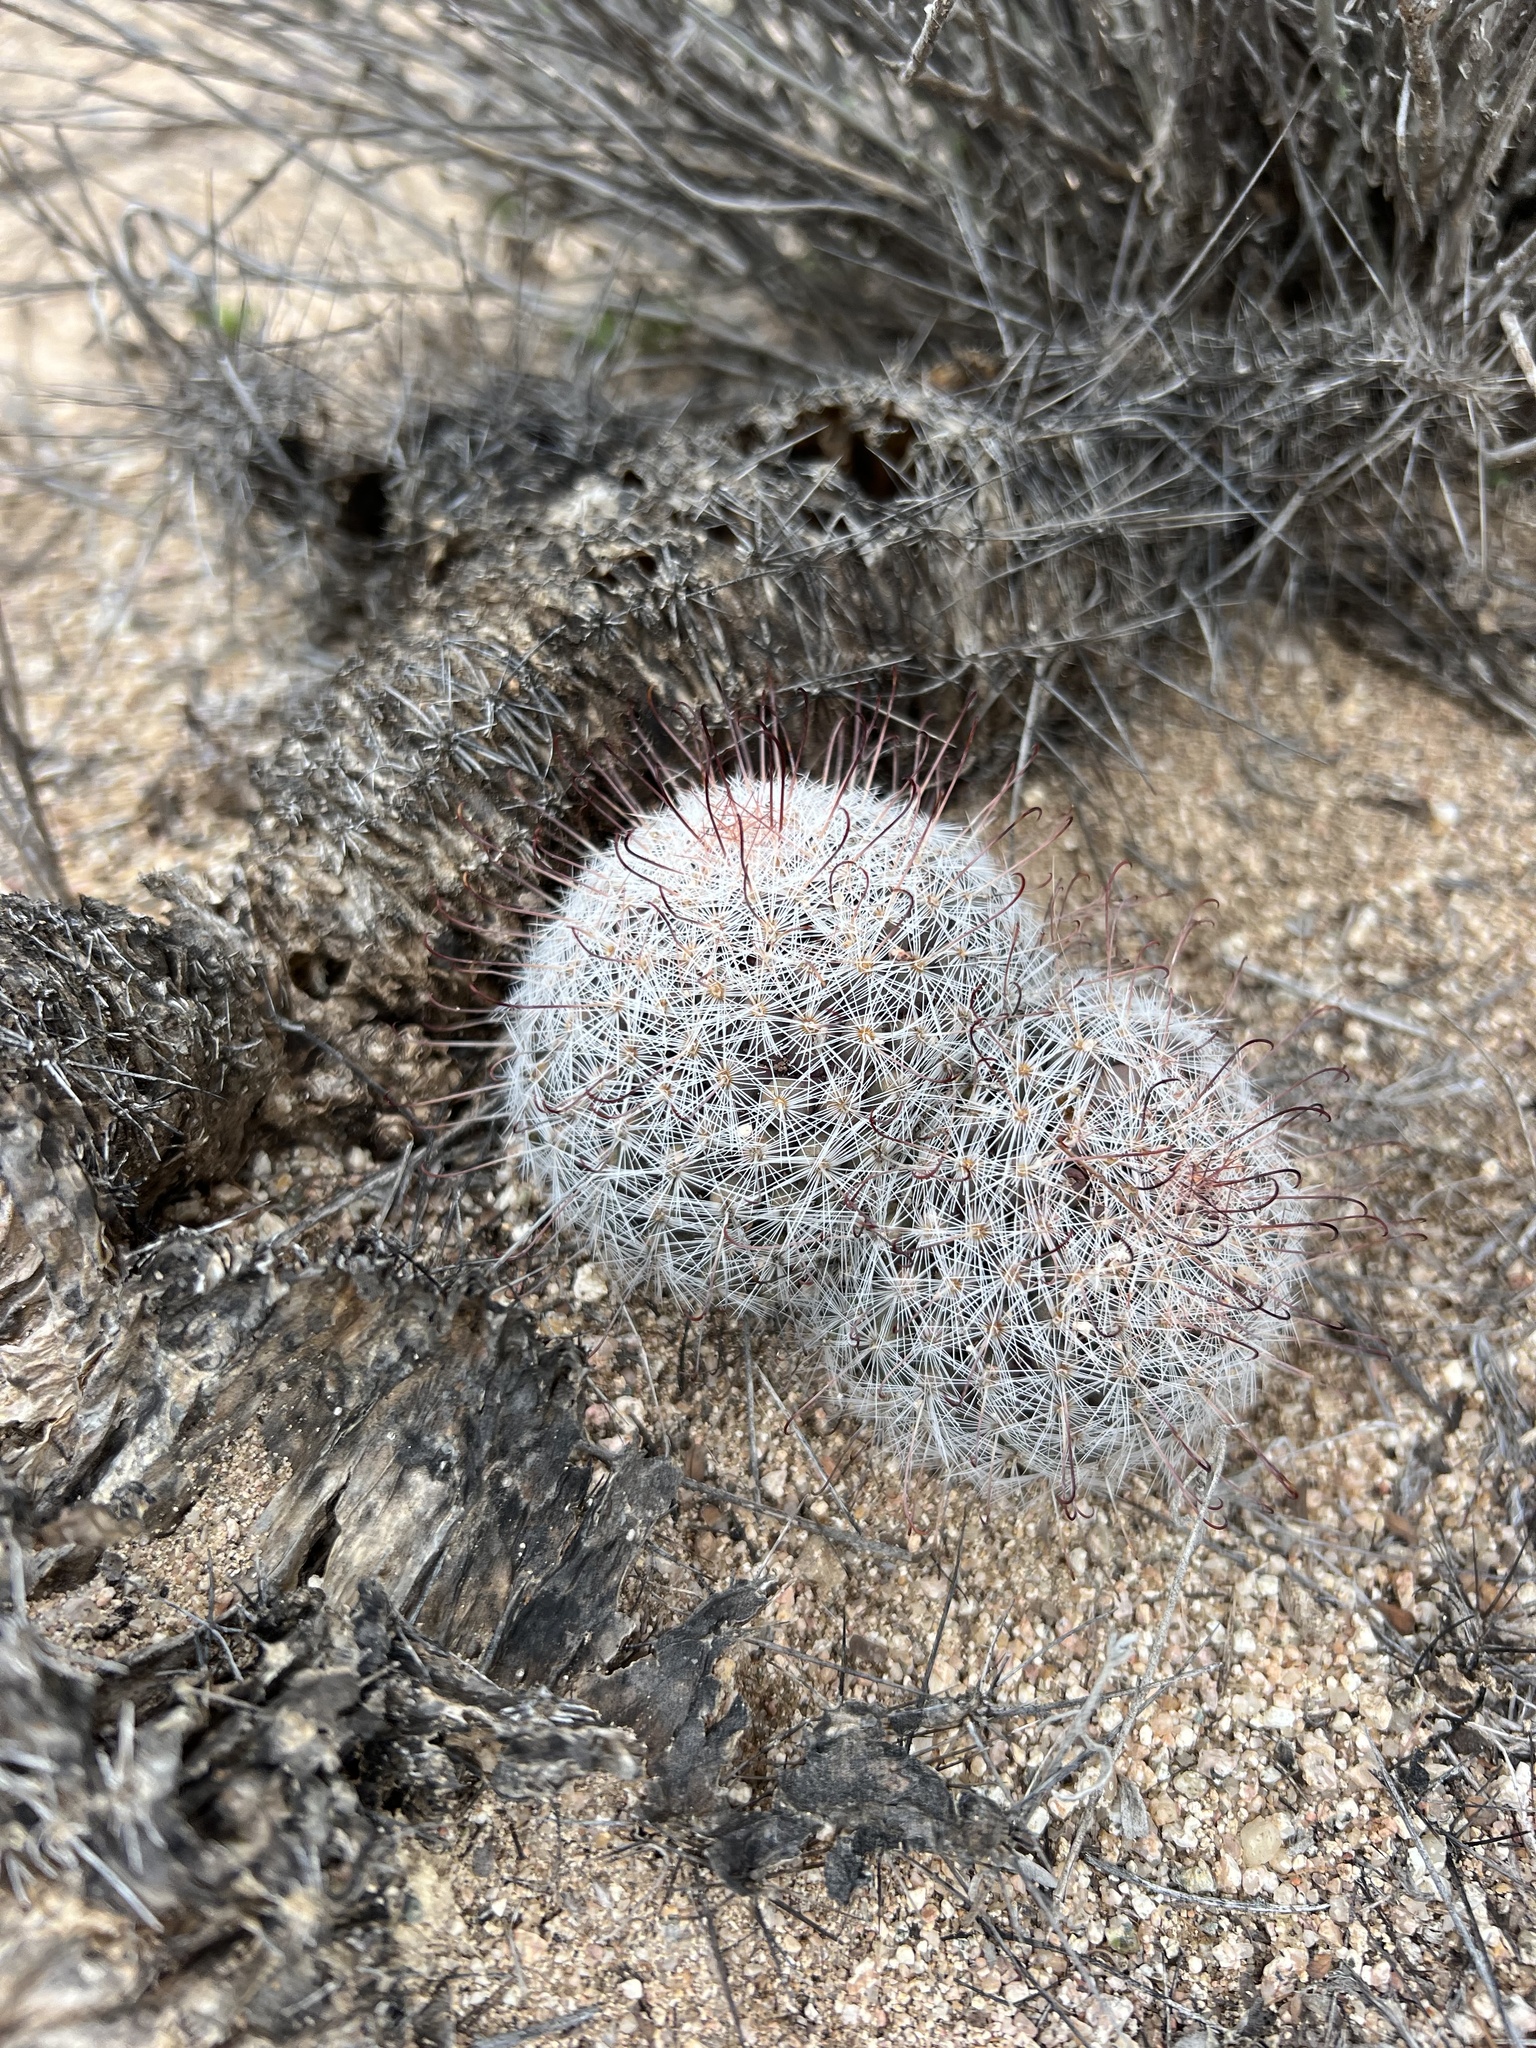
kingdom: Plantae
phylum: Tracheophyta
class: Magnoliopsida
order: Caryophyllales
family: Cactaceae
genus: Cochemiea
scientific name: Cochemiea grahamii
